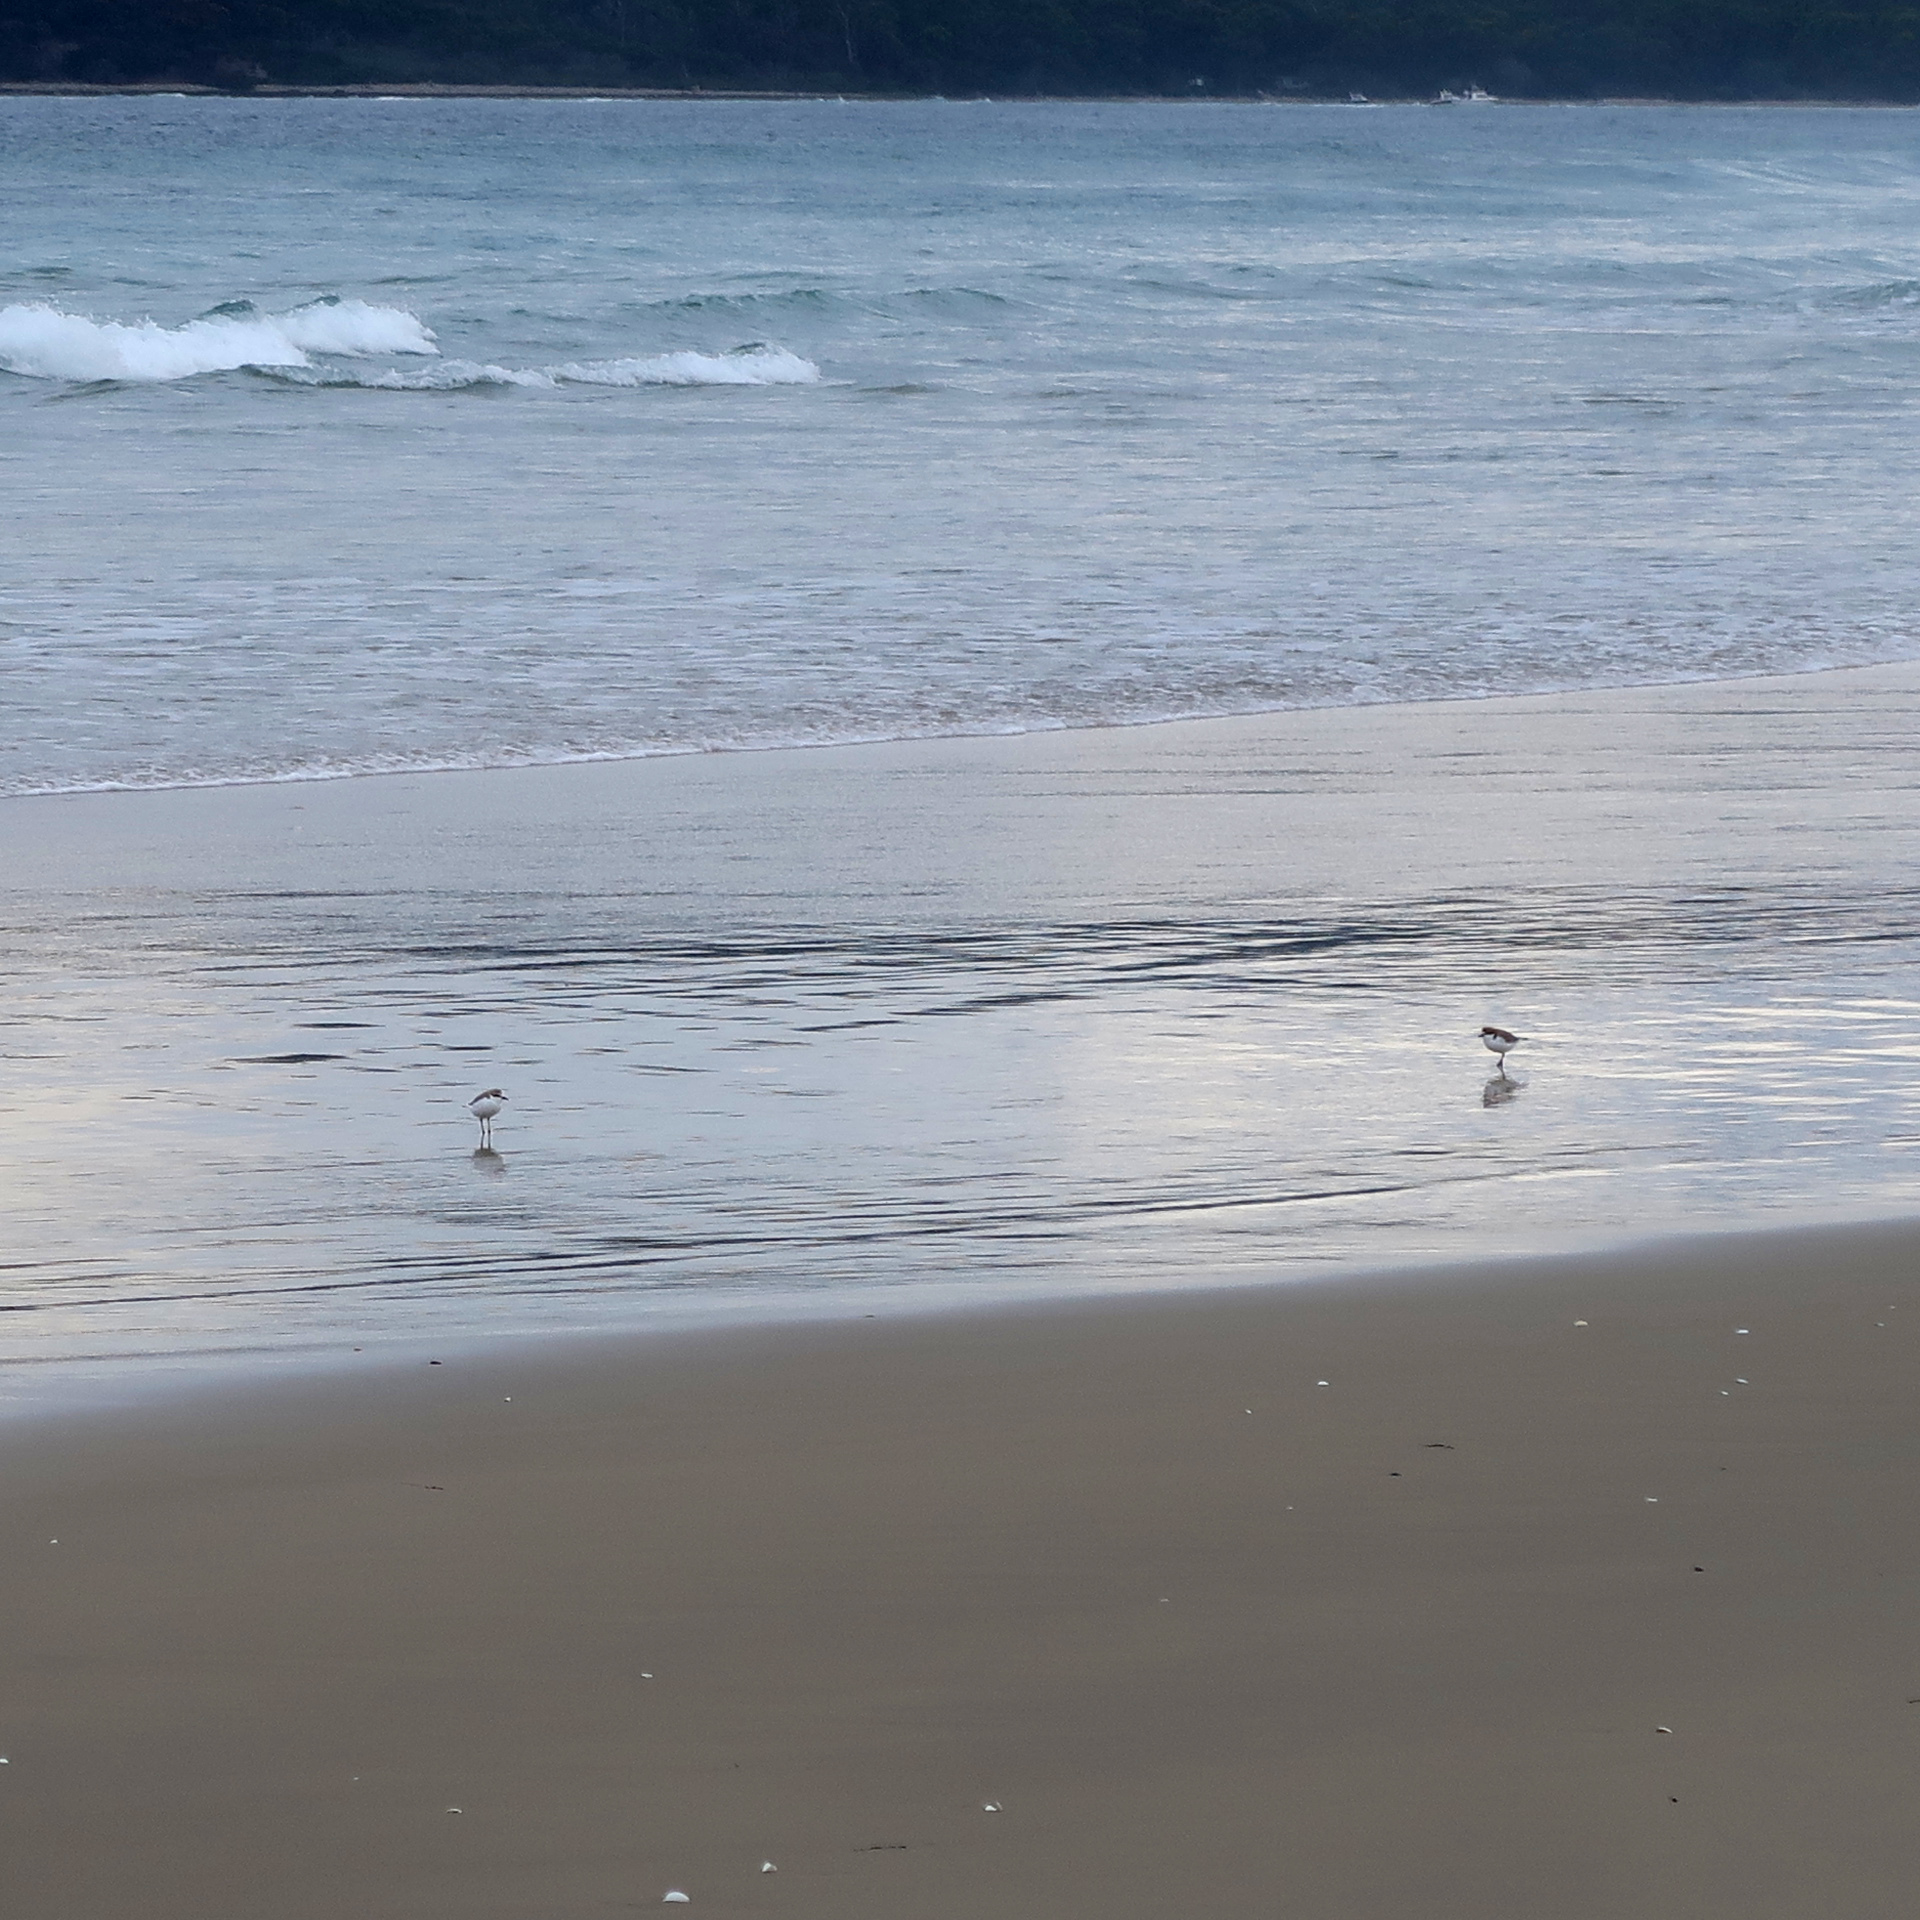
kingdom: Animalia
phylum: Chordata
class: Aves
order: Charadriiformes
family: Charadriidae
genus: Anarhynchus
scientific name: Anarhynchus
